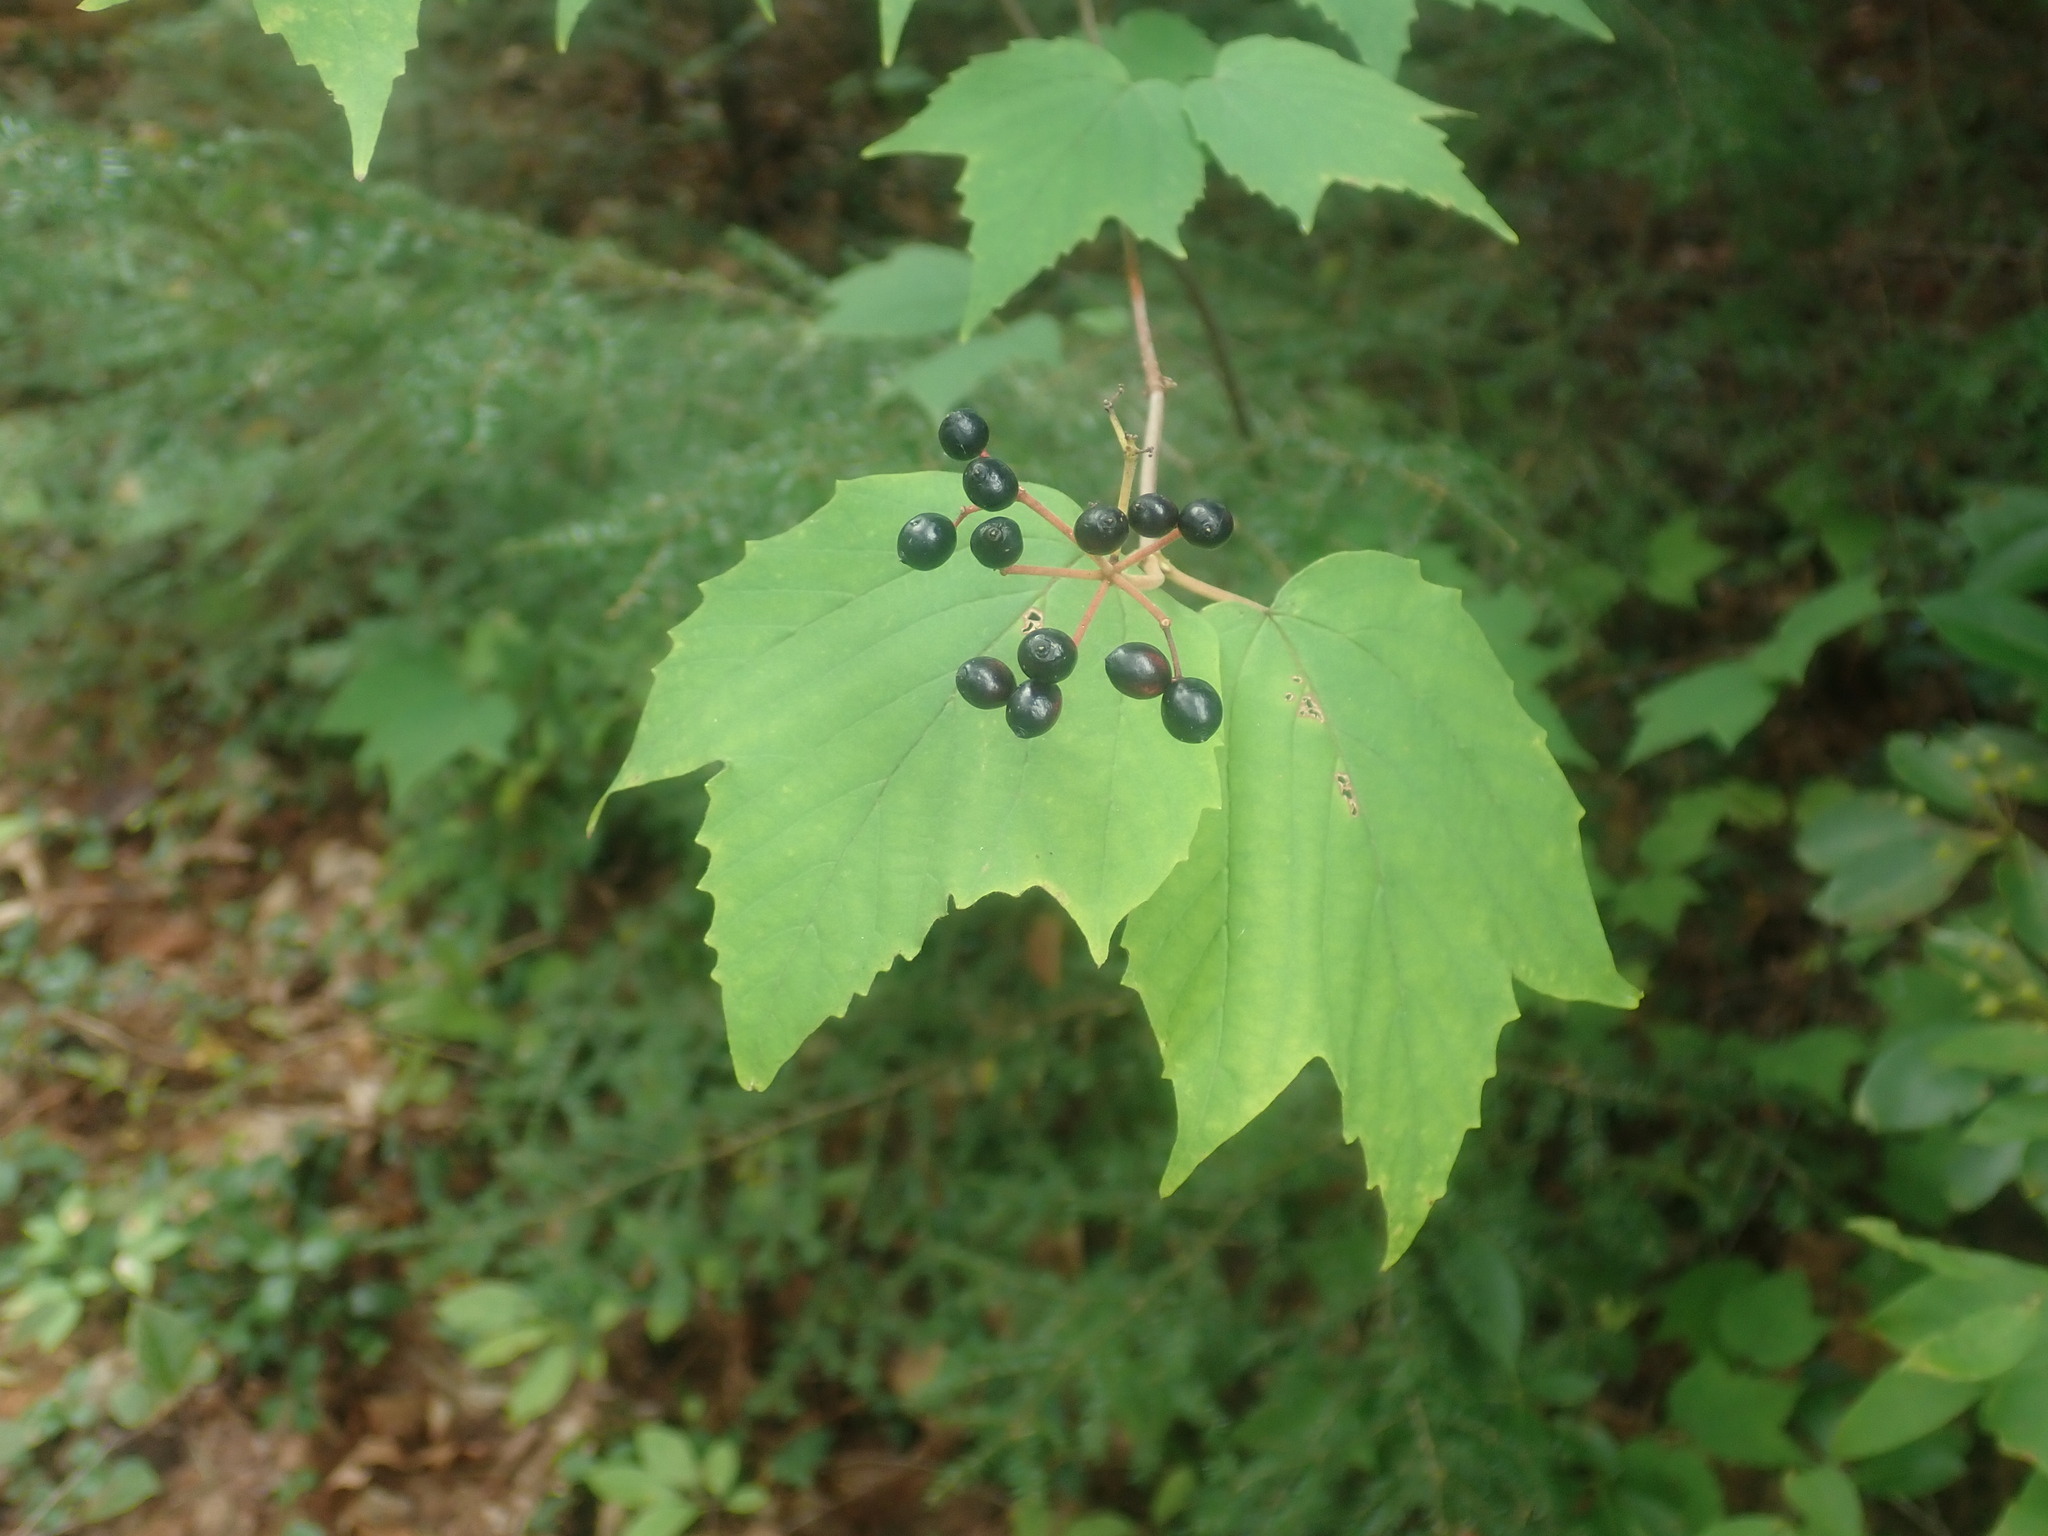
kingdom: Plantae
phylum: Tracheophyta
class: Magnoliopsida
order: Dipsacales
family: Viburnaceae
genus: Viburnum
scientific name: Viburnum acerifolium
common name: Dockmackie
